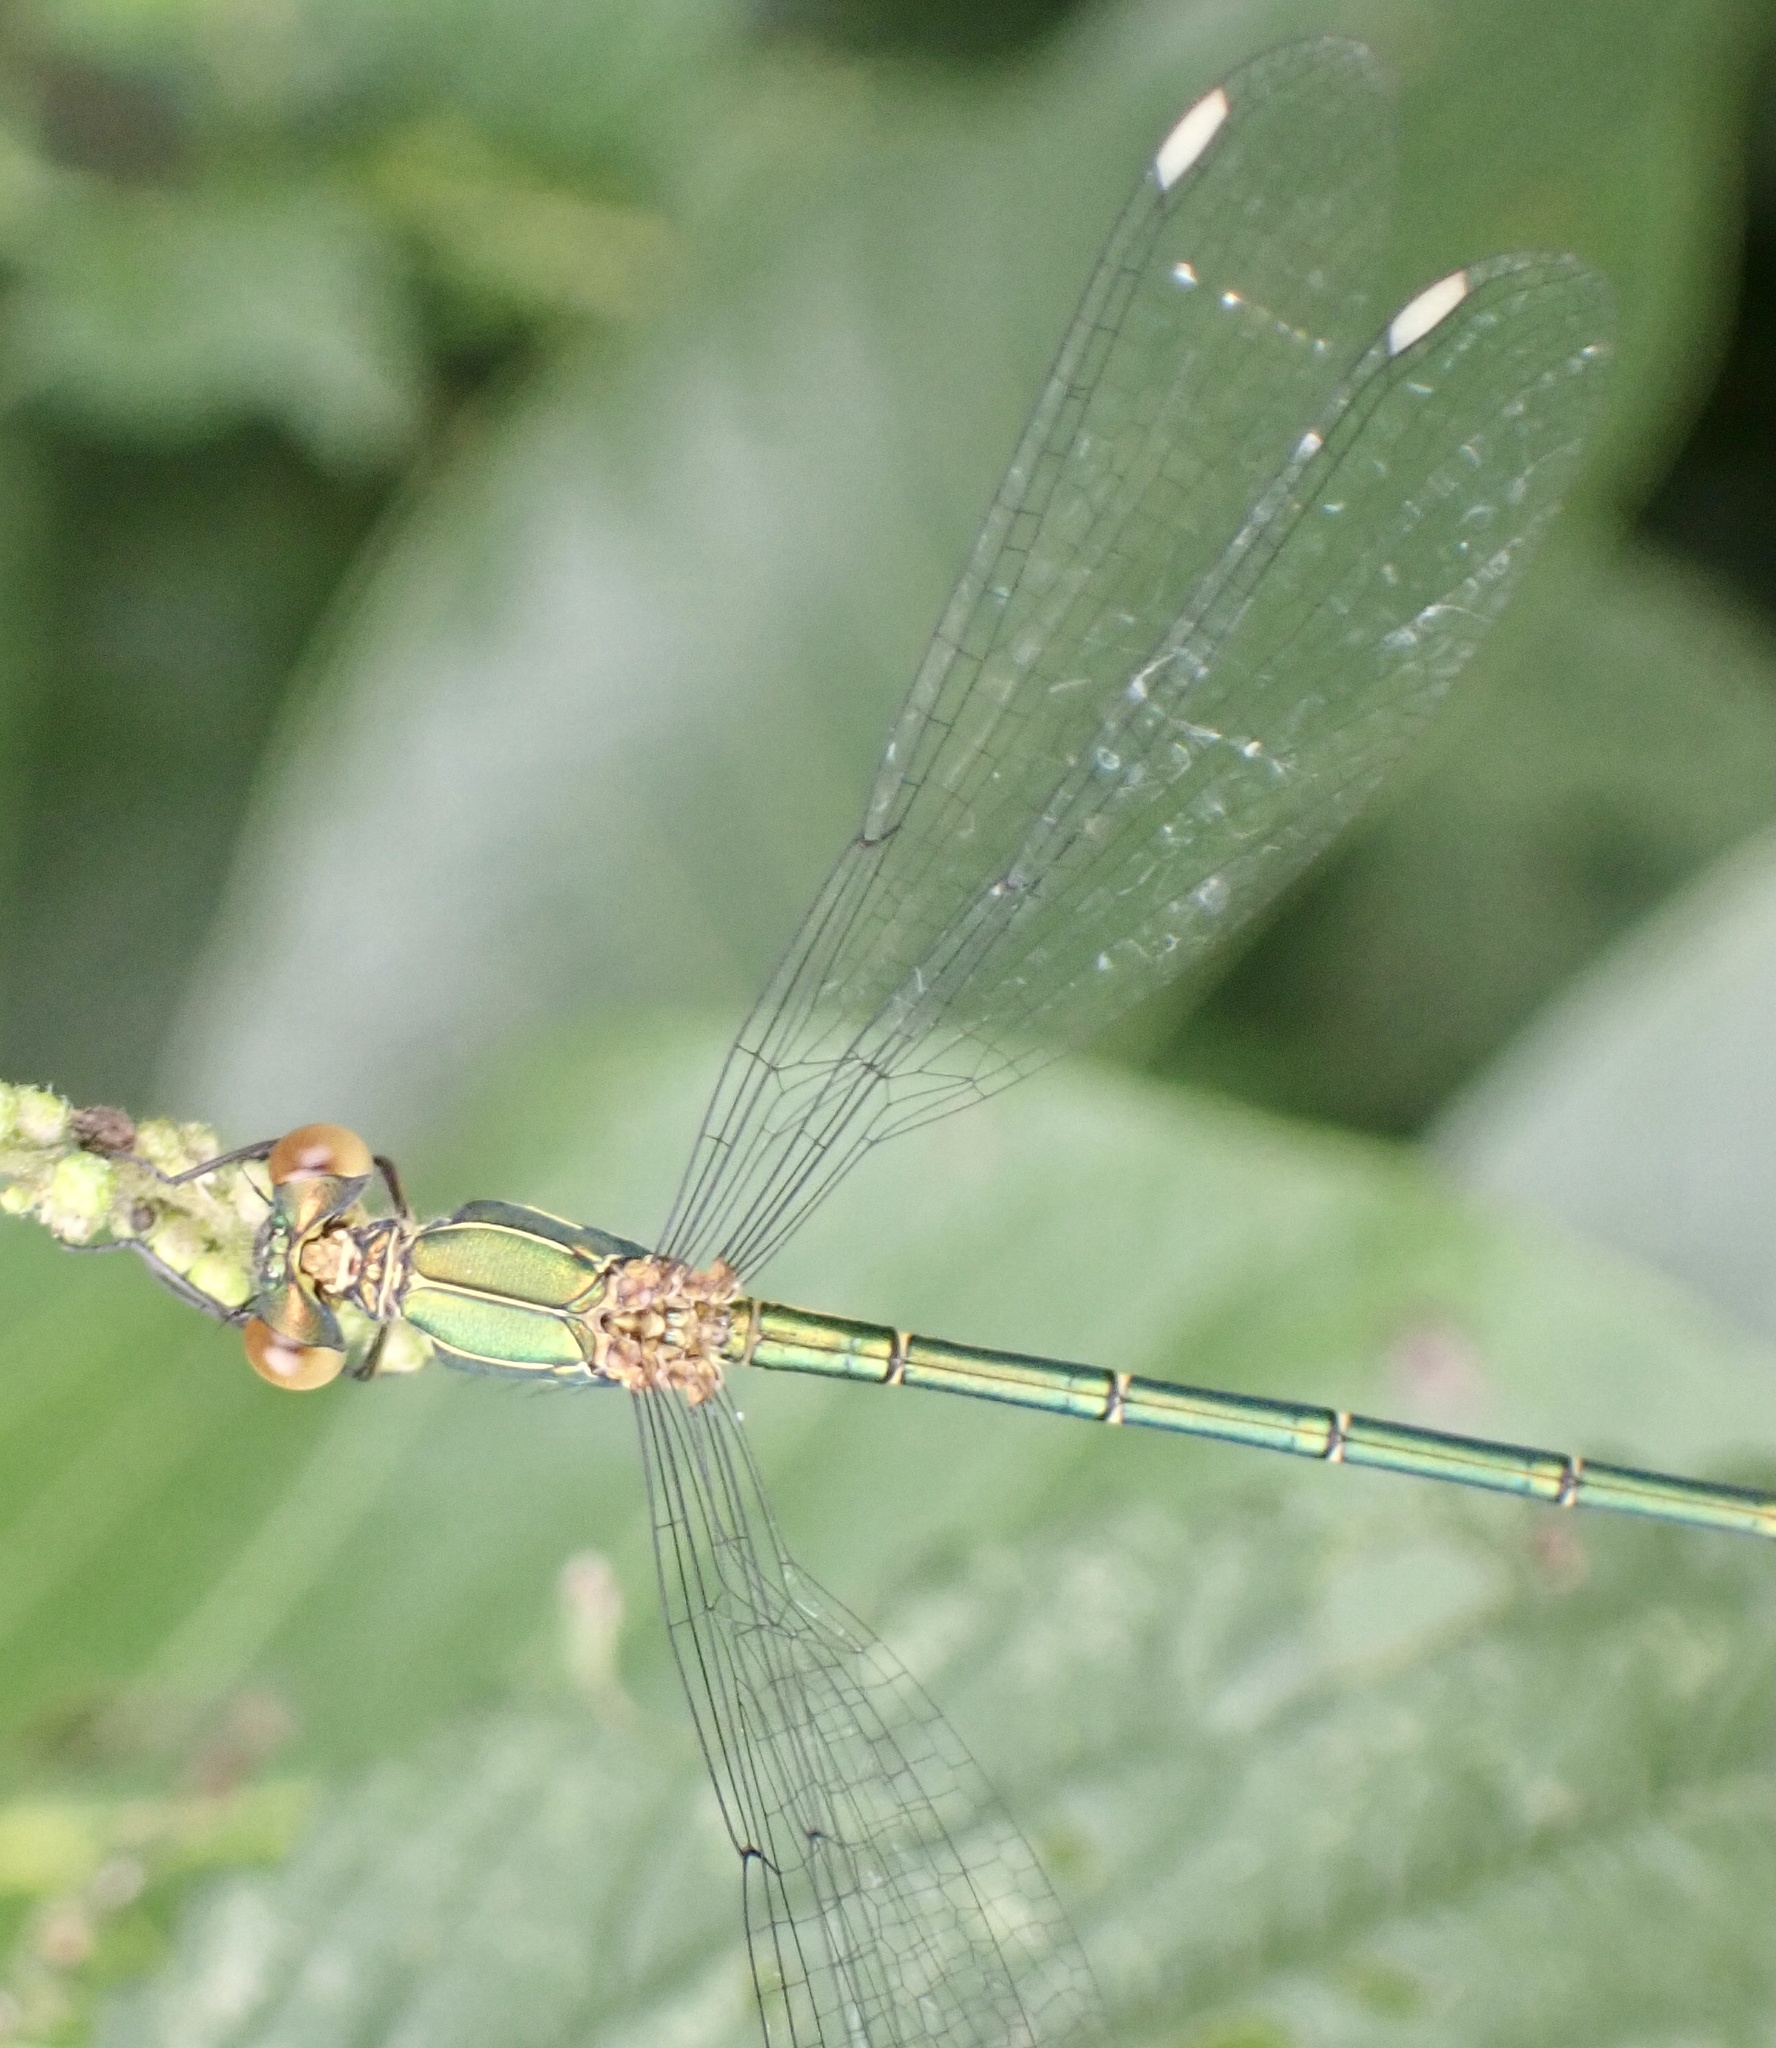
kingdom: Animalia
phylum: Arthropoda
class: Insecta
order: Odonata
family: Lestidae
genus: Chalcolestes
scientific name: Chalcolestes viridis
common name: Green emerald damselfly
